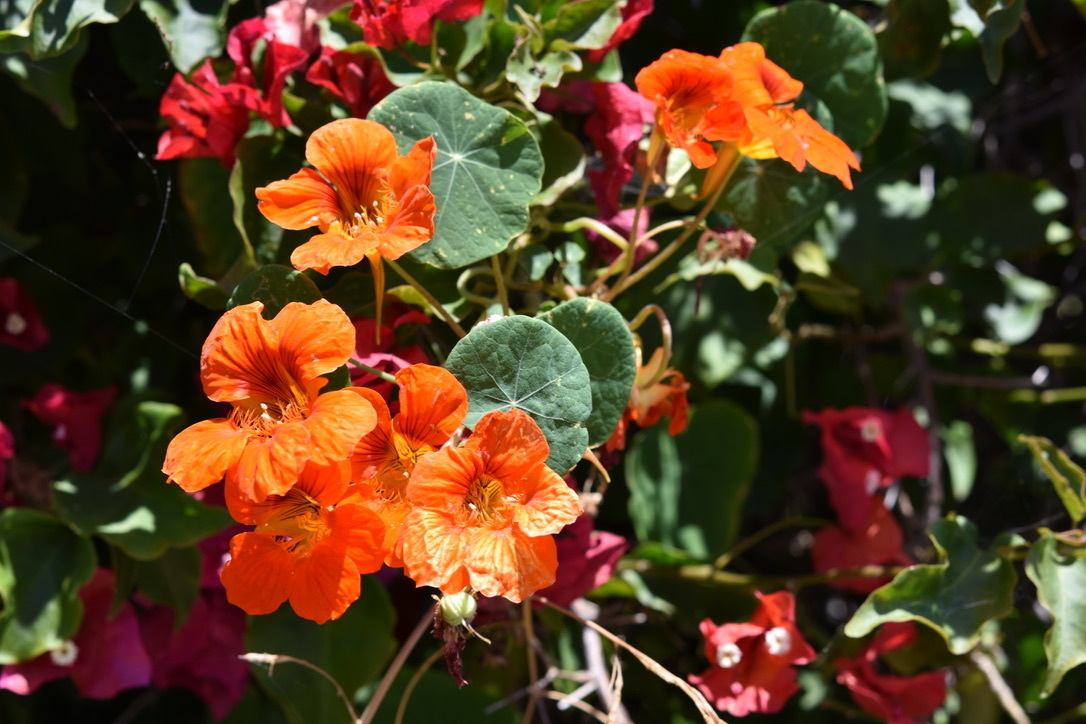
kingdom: Plantae
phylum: Tracheophyta
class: Magnoliopsida
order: Brassicales
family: Tropaeolaceae
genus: Tropaeolum
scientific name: Tropaeolum majus
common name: Nasturtium
